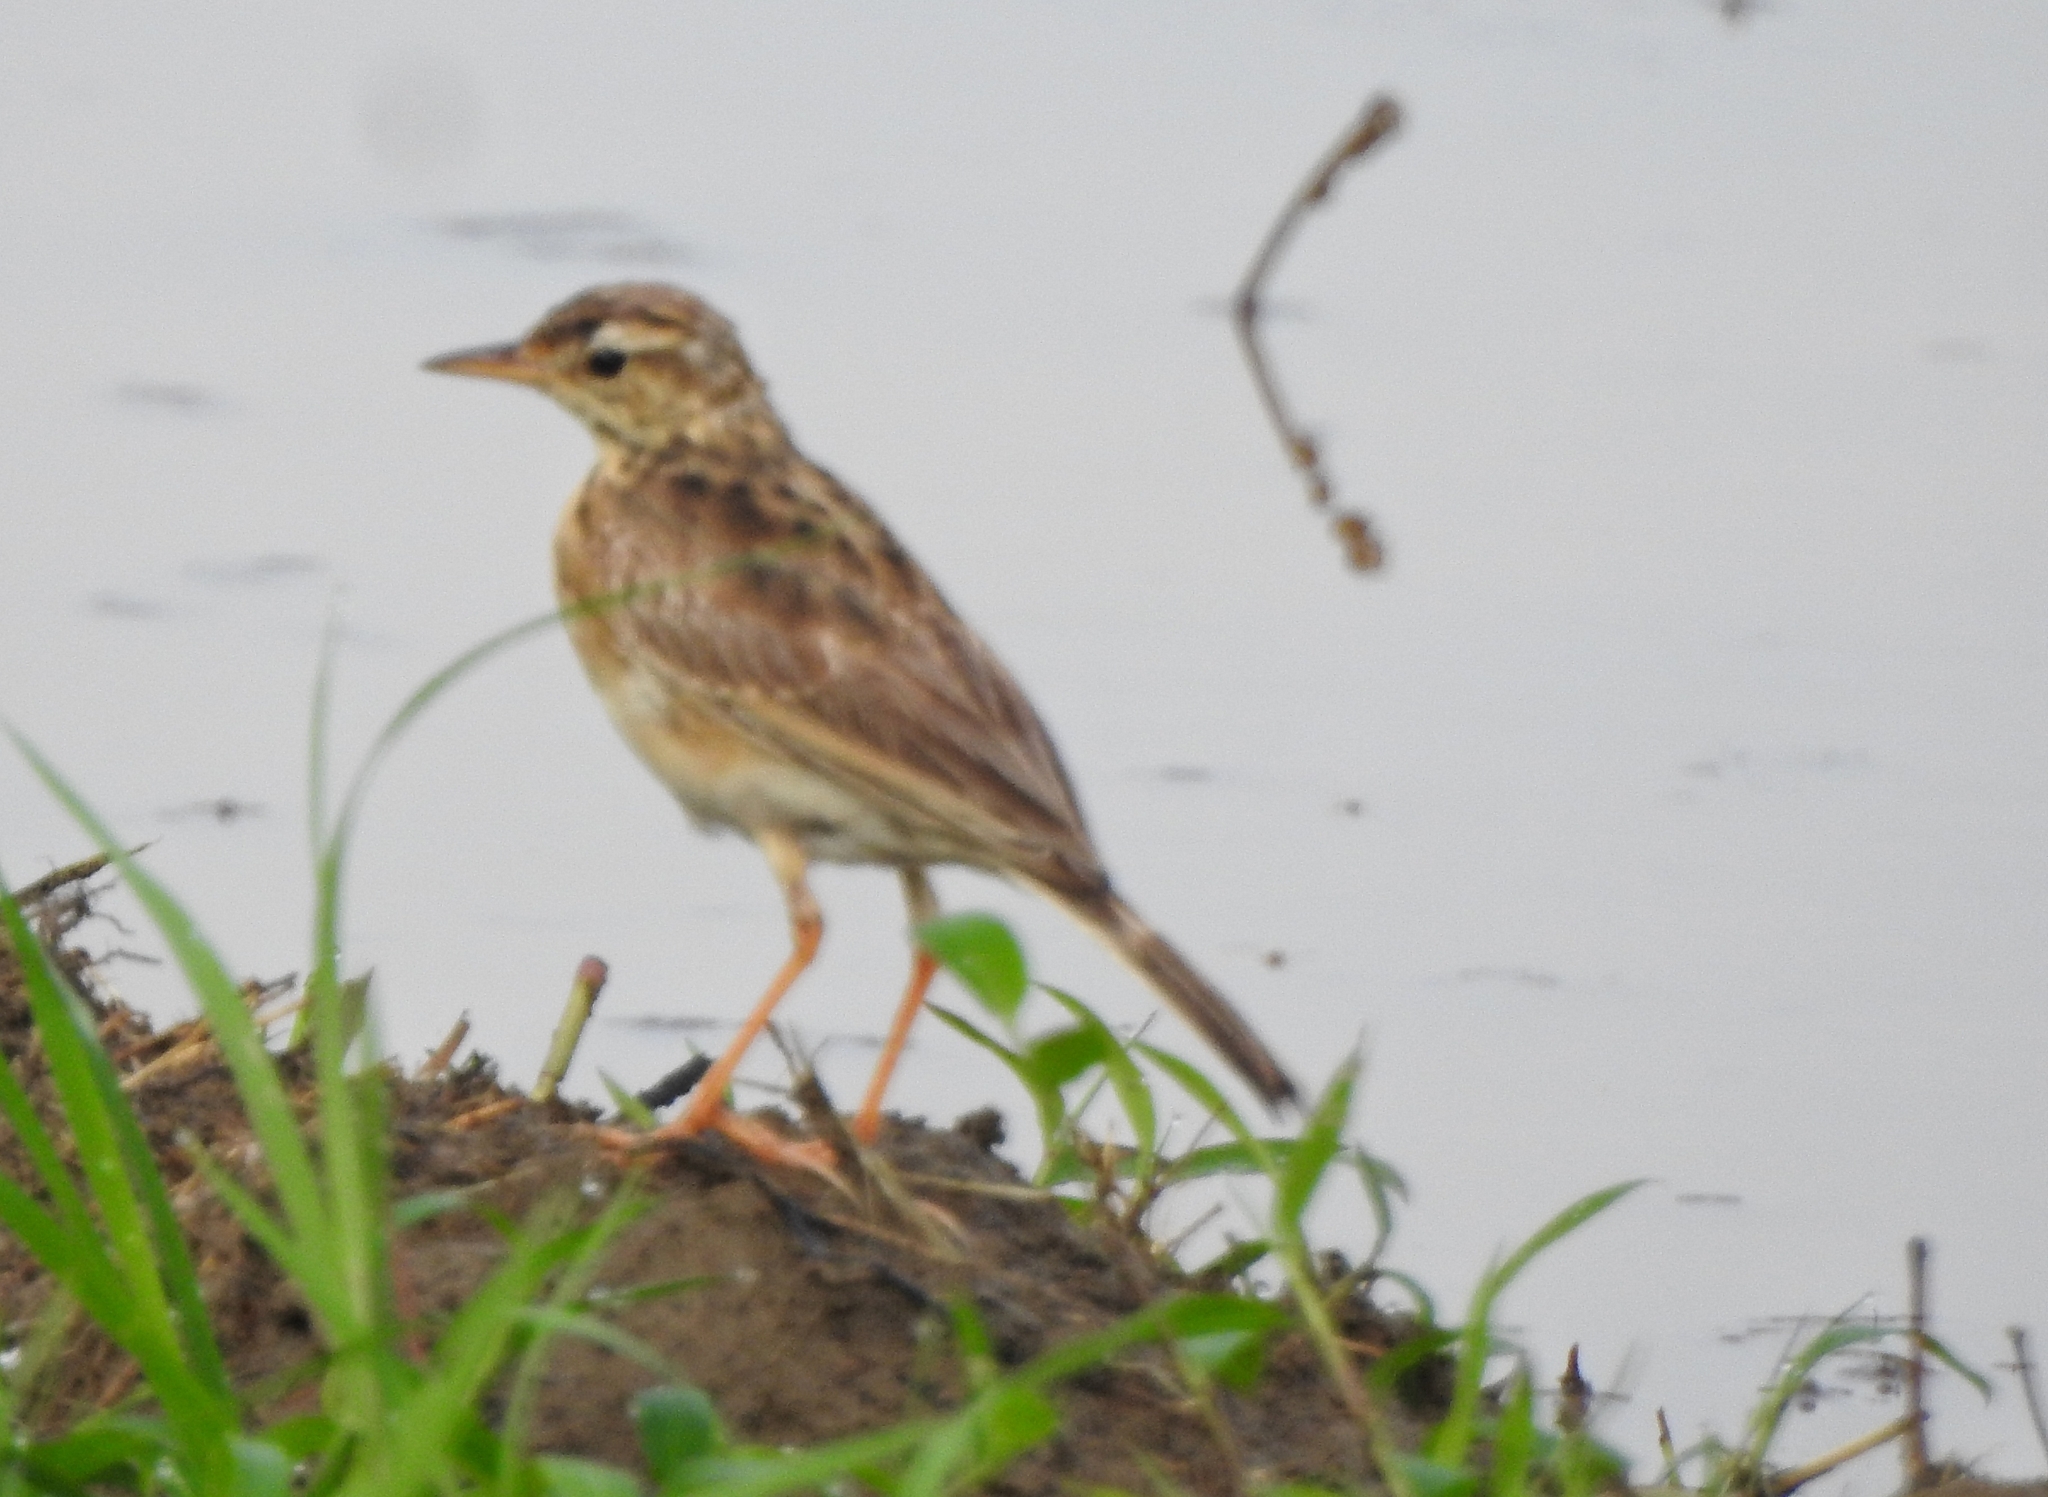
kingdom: Animalia
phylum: Chordata
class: Aves
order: Passeriformes
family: Motacillidae
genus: Anthus
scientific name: Anthus rufulus
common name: Paddyfield pipit
